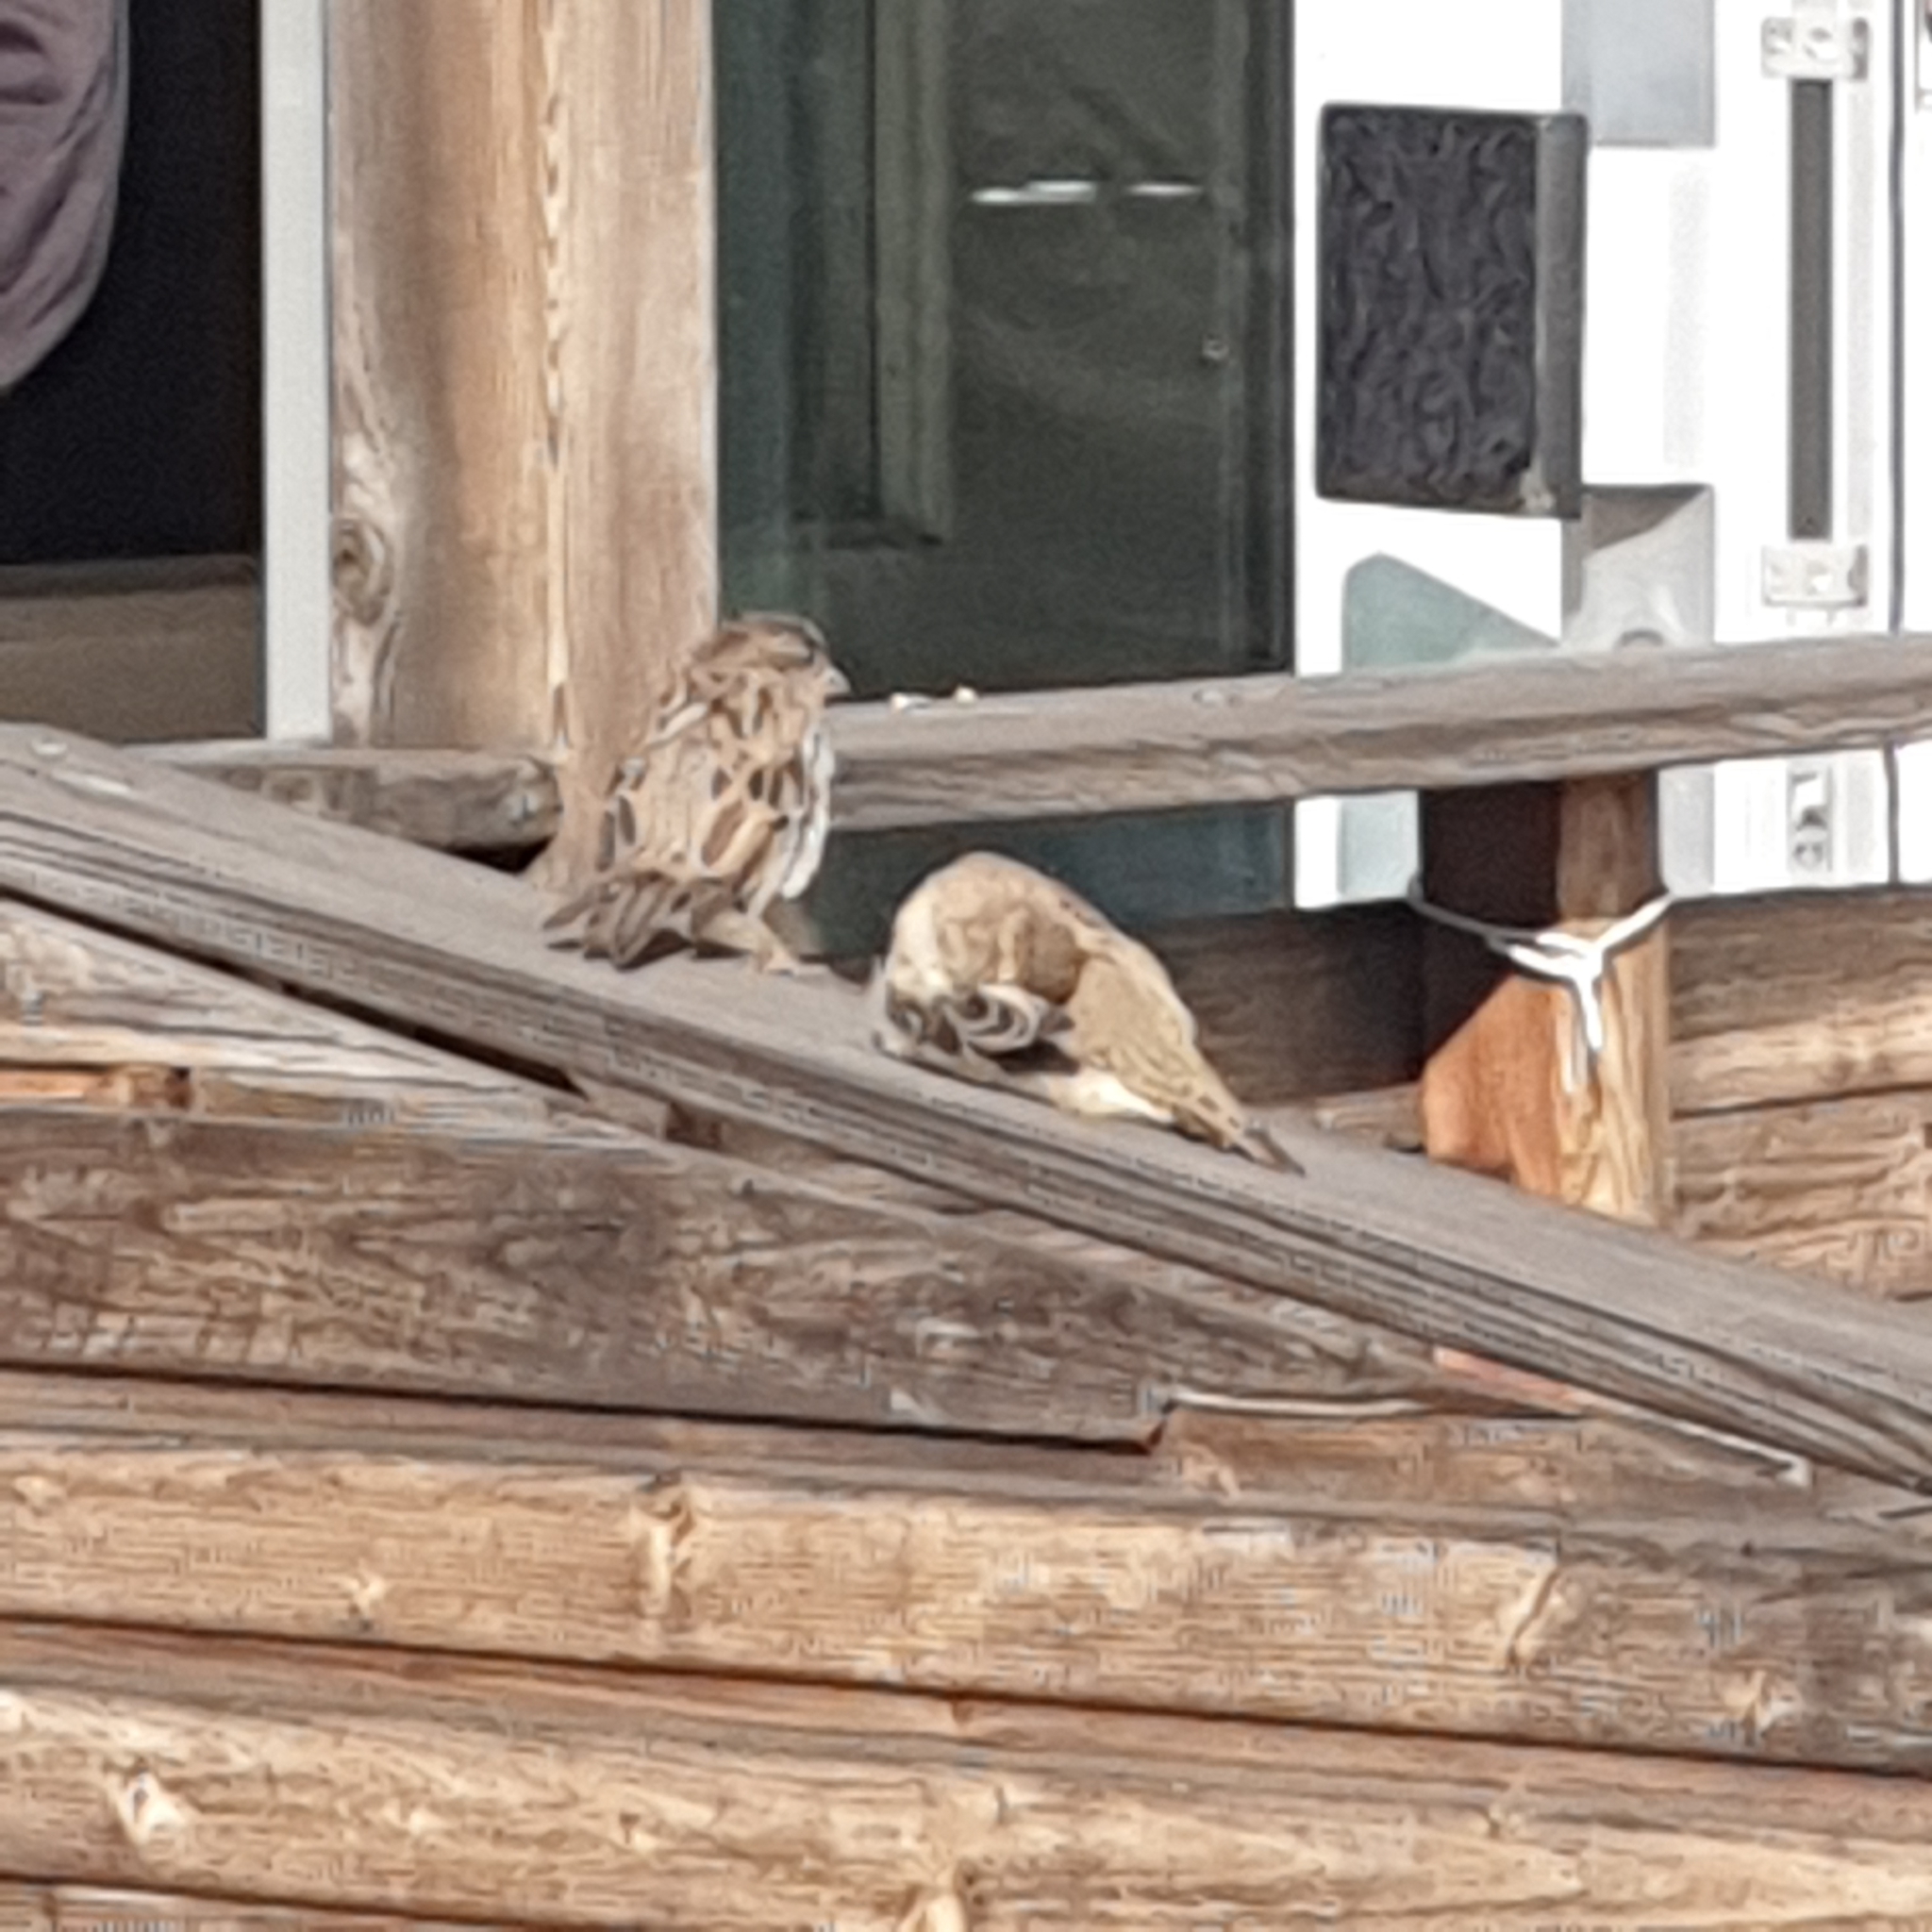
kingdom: Animalia
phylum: Chordata
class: Aves
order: Passeriformes
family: Passeridae
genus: Passer
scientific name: Passer domesticus
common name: House sparrow
